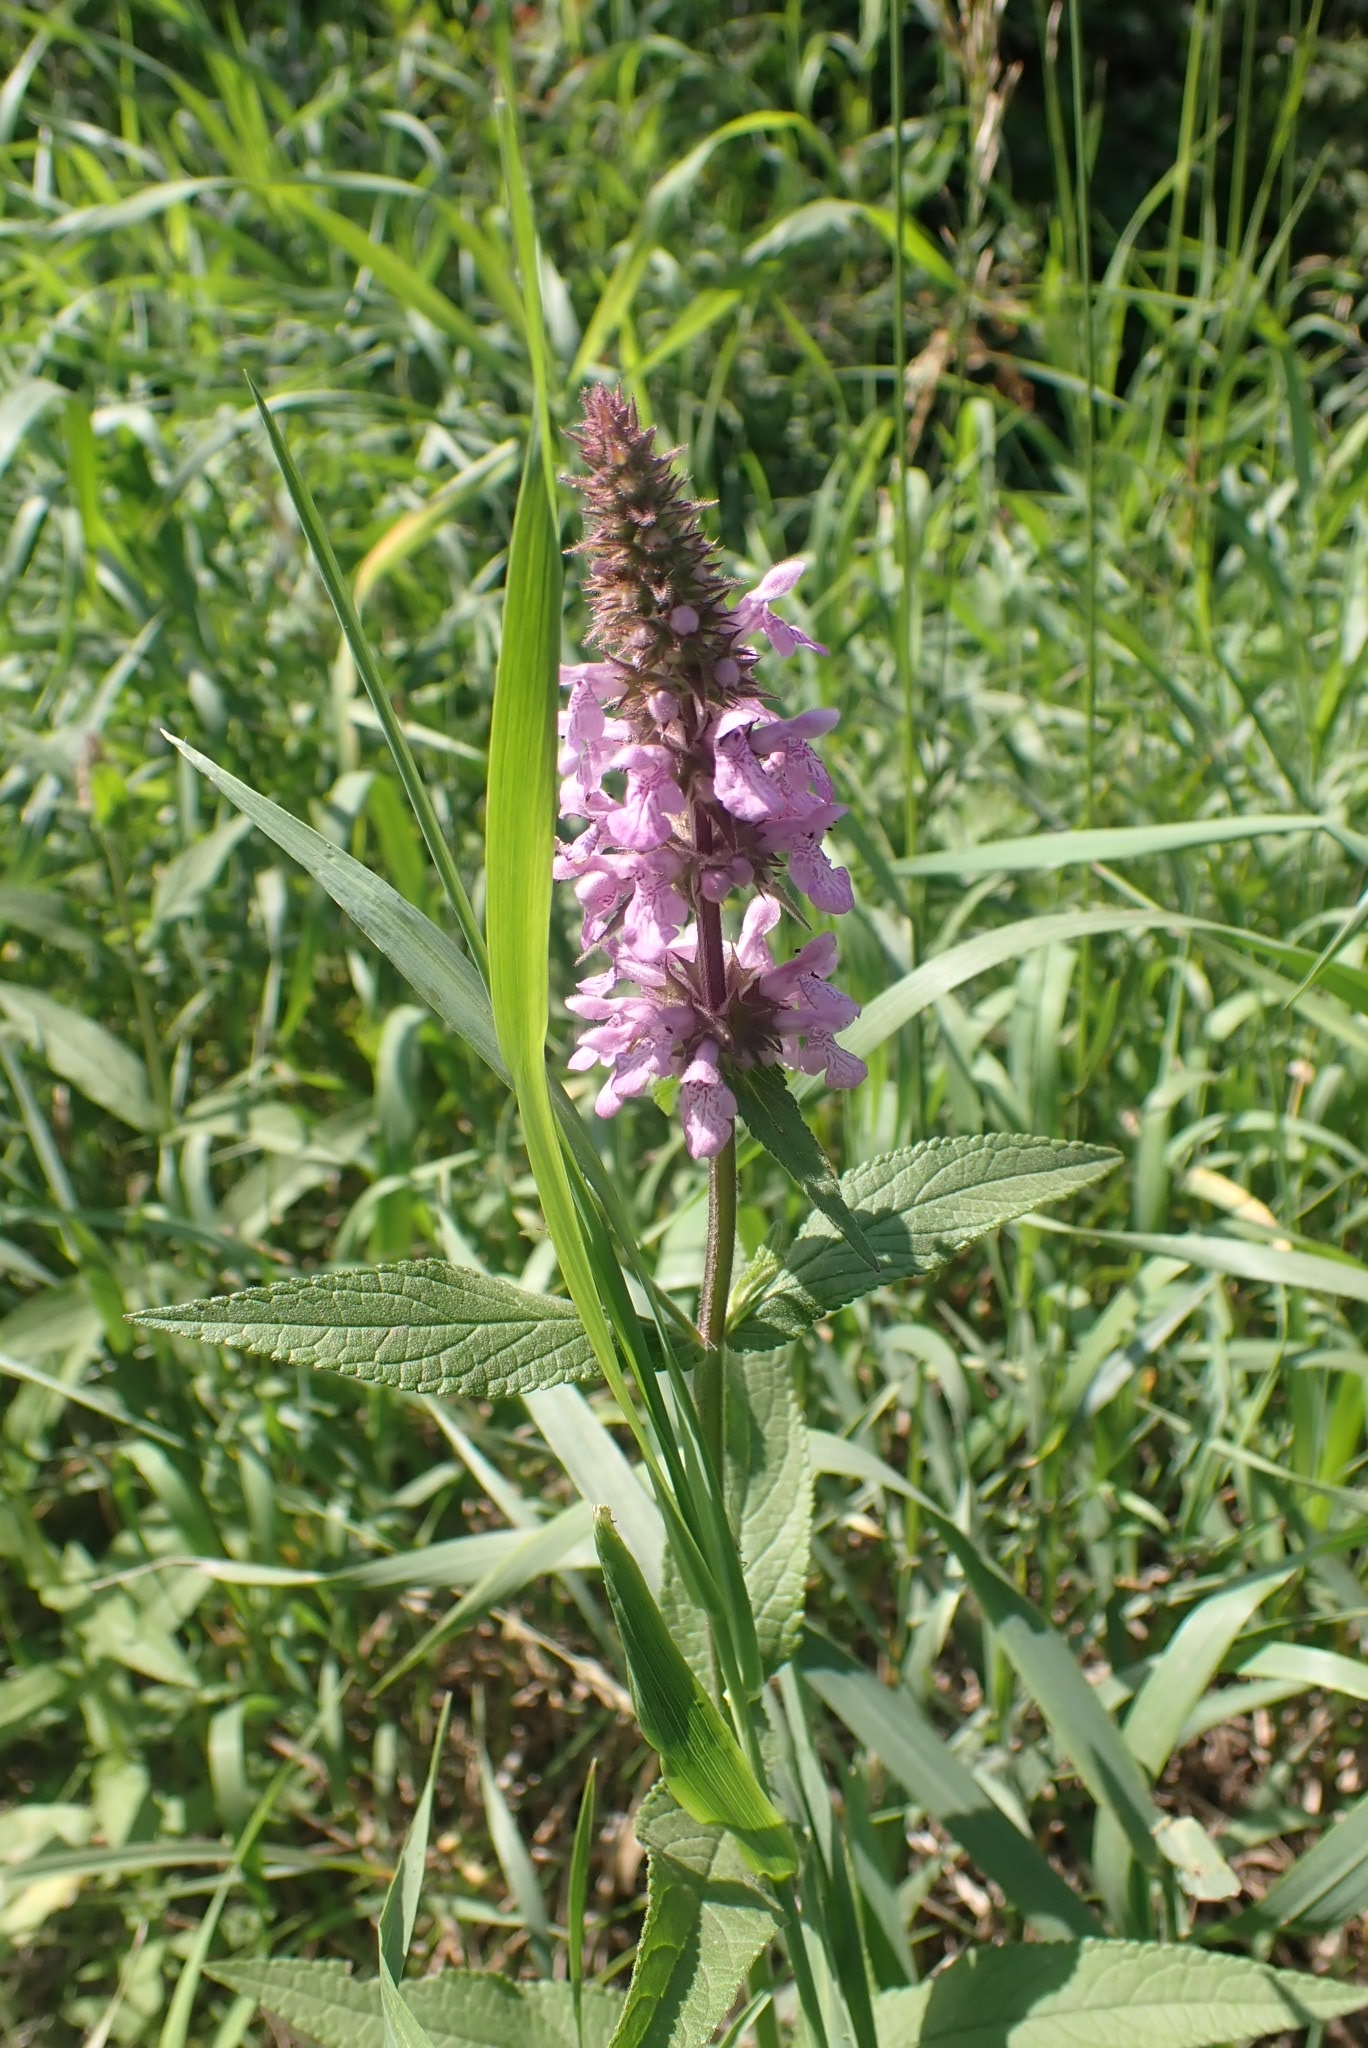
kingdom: Plantae
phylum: Tracheophyta
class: Magnoliopsida
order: Lamiales
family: Lamiaceae
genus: Stachys
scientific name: Stachys palustris
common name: Marsh woundwort
